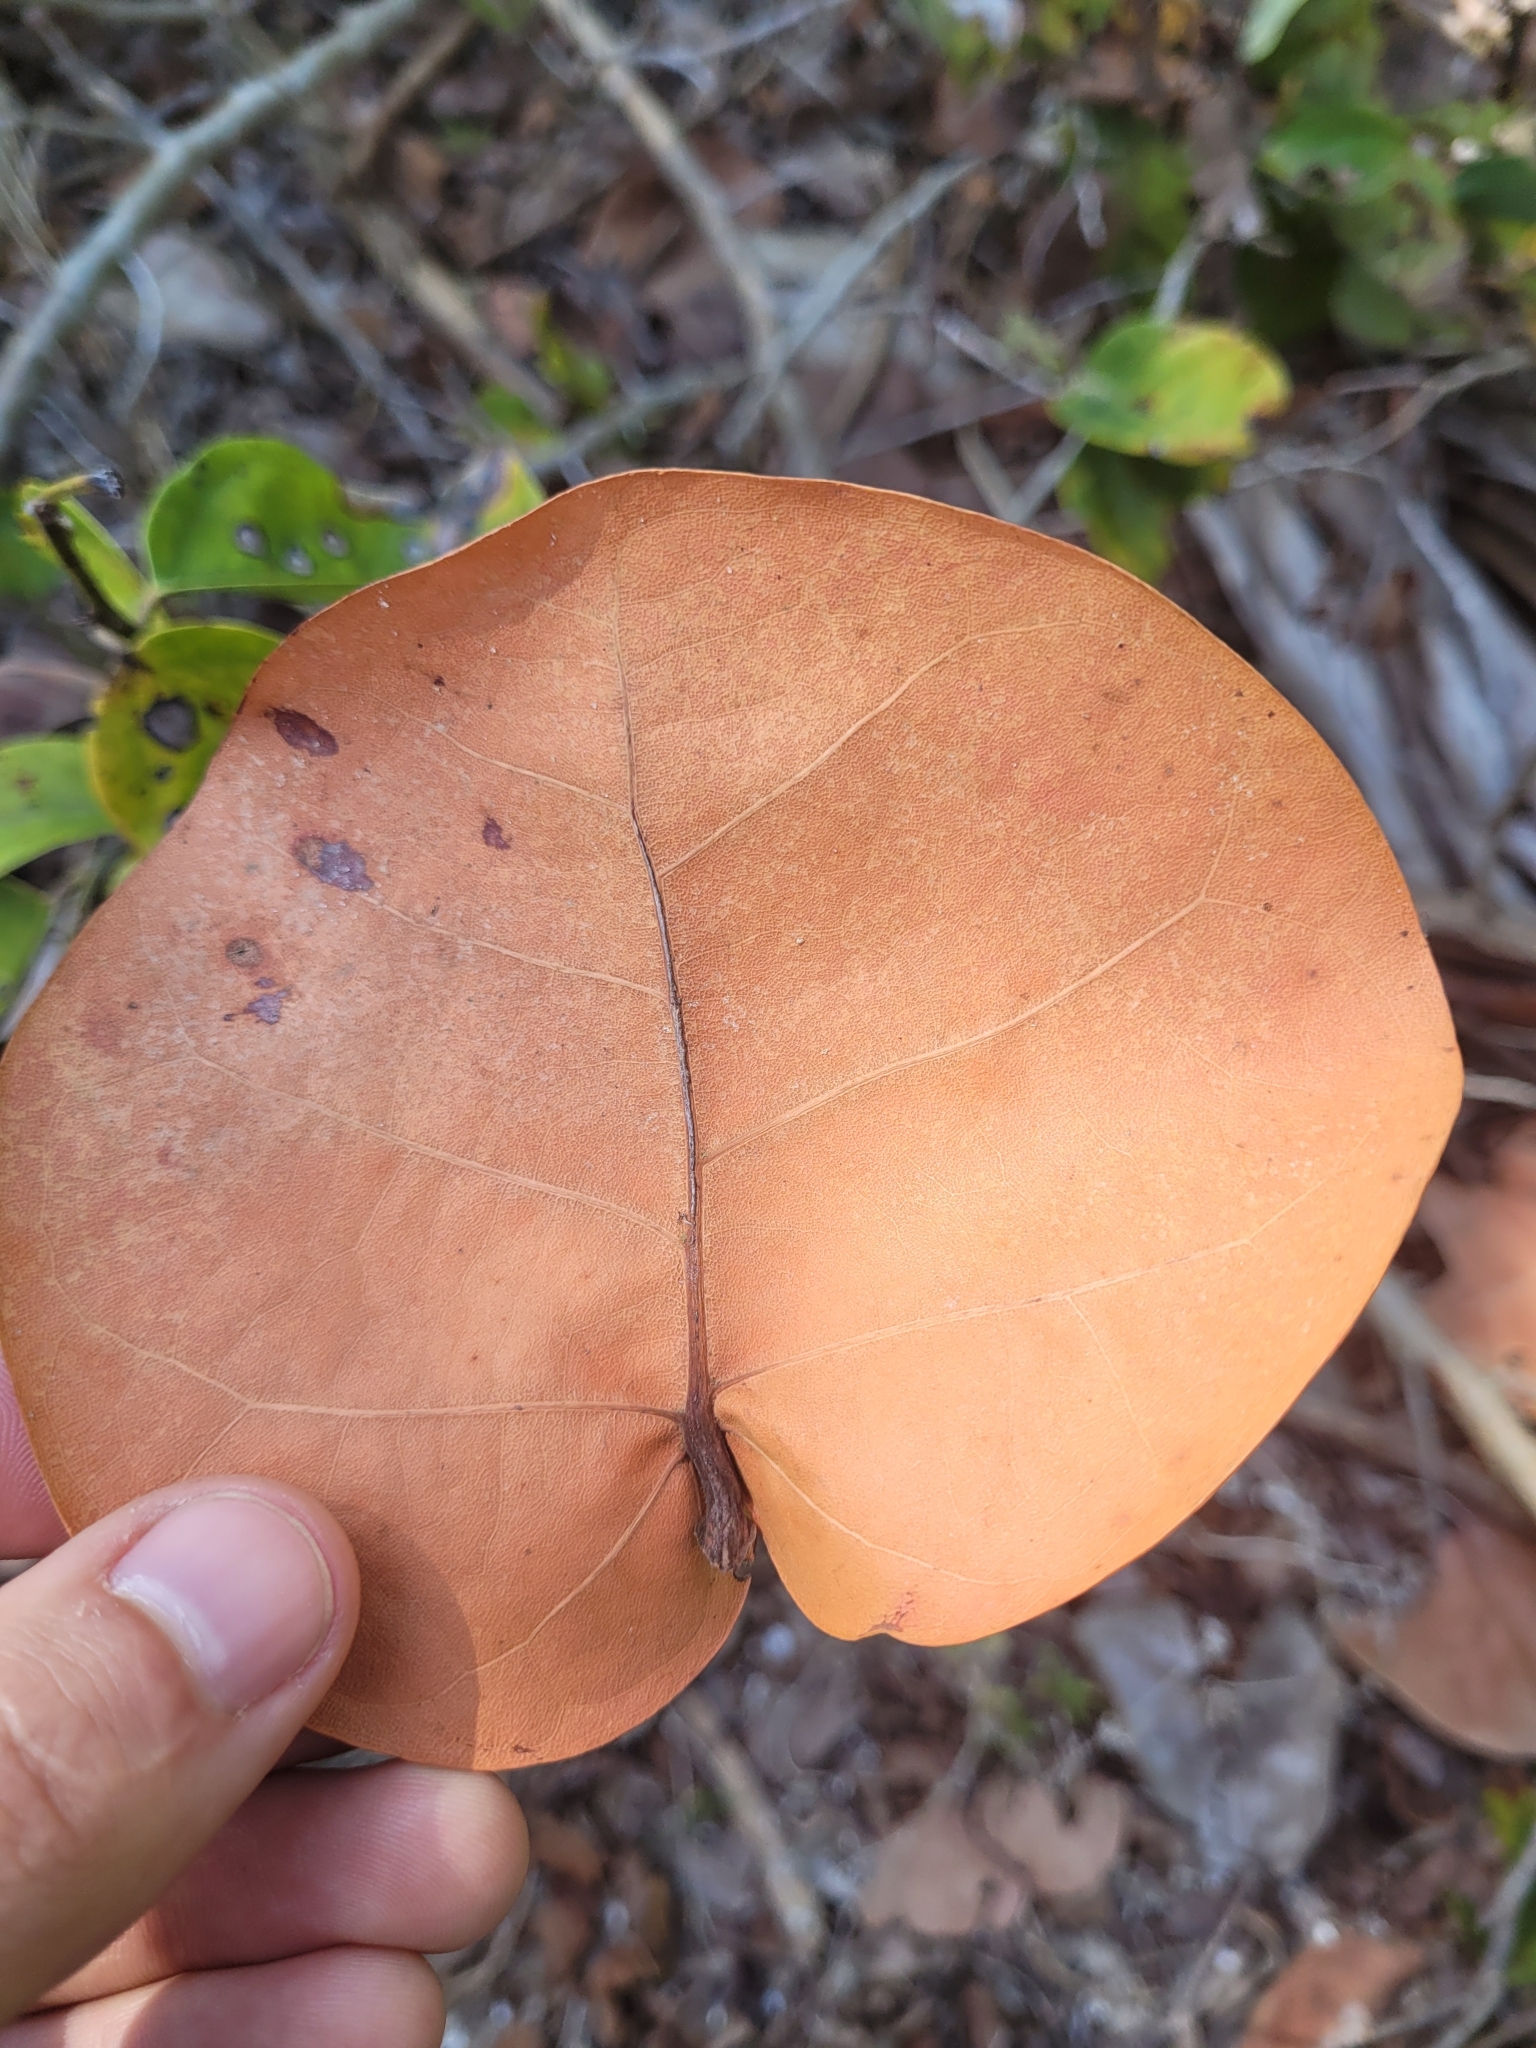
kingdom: Plantae
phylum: Tracheophyta
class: Magnoliopsida
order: Caryophyllales
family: Polygonaceae
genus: Coccoloba
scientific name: Coccoloba uvifera
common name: Seagrape
